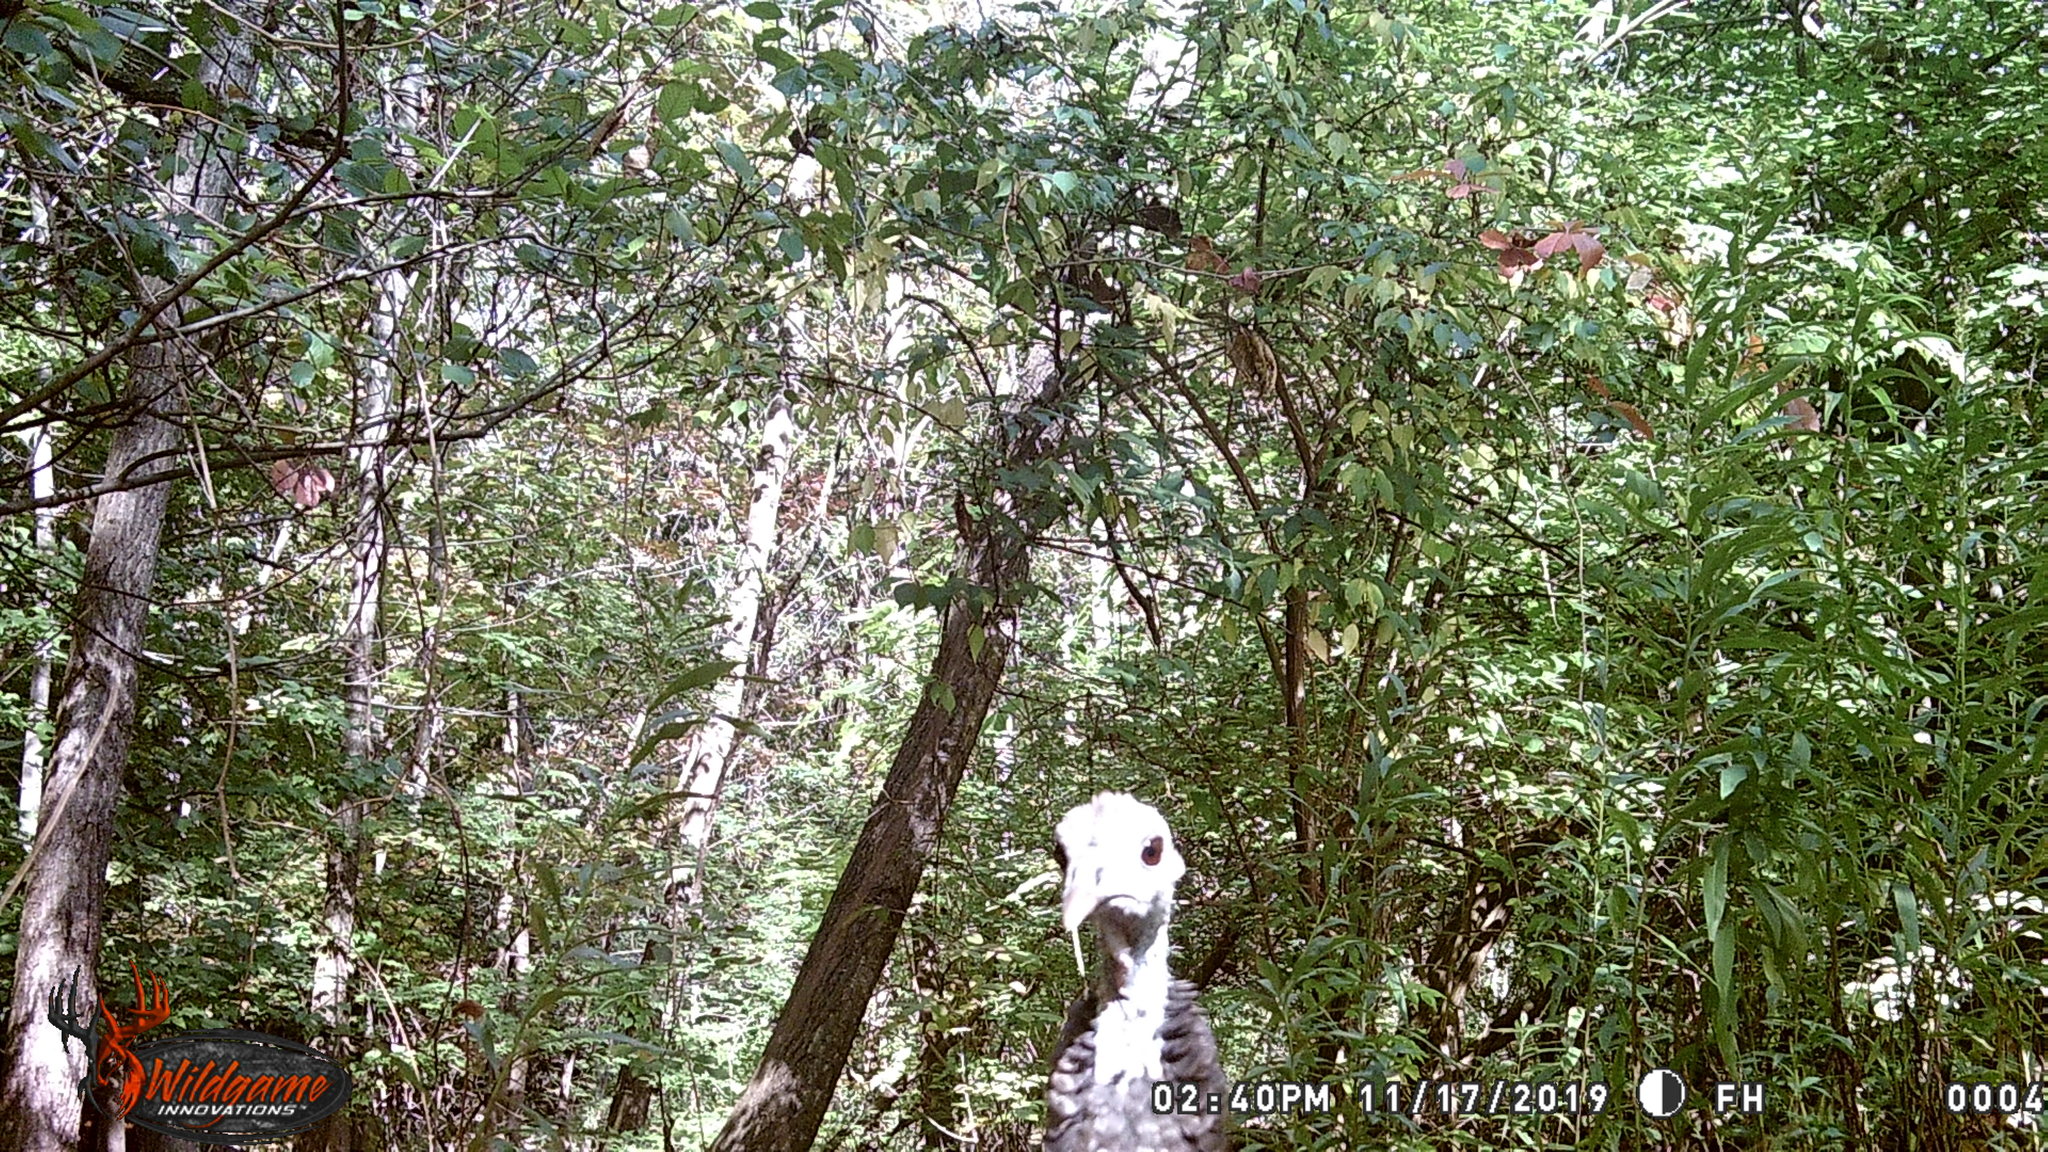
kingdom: Animalia
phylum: Chordata
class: Aves
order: Galliformes
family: Phasianidae
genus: Meleagris
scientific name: Meleagris gallopavo
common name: Wild turkey
